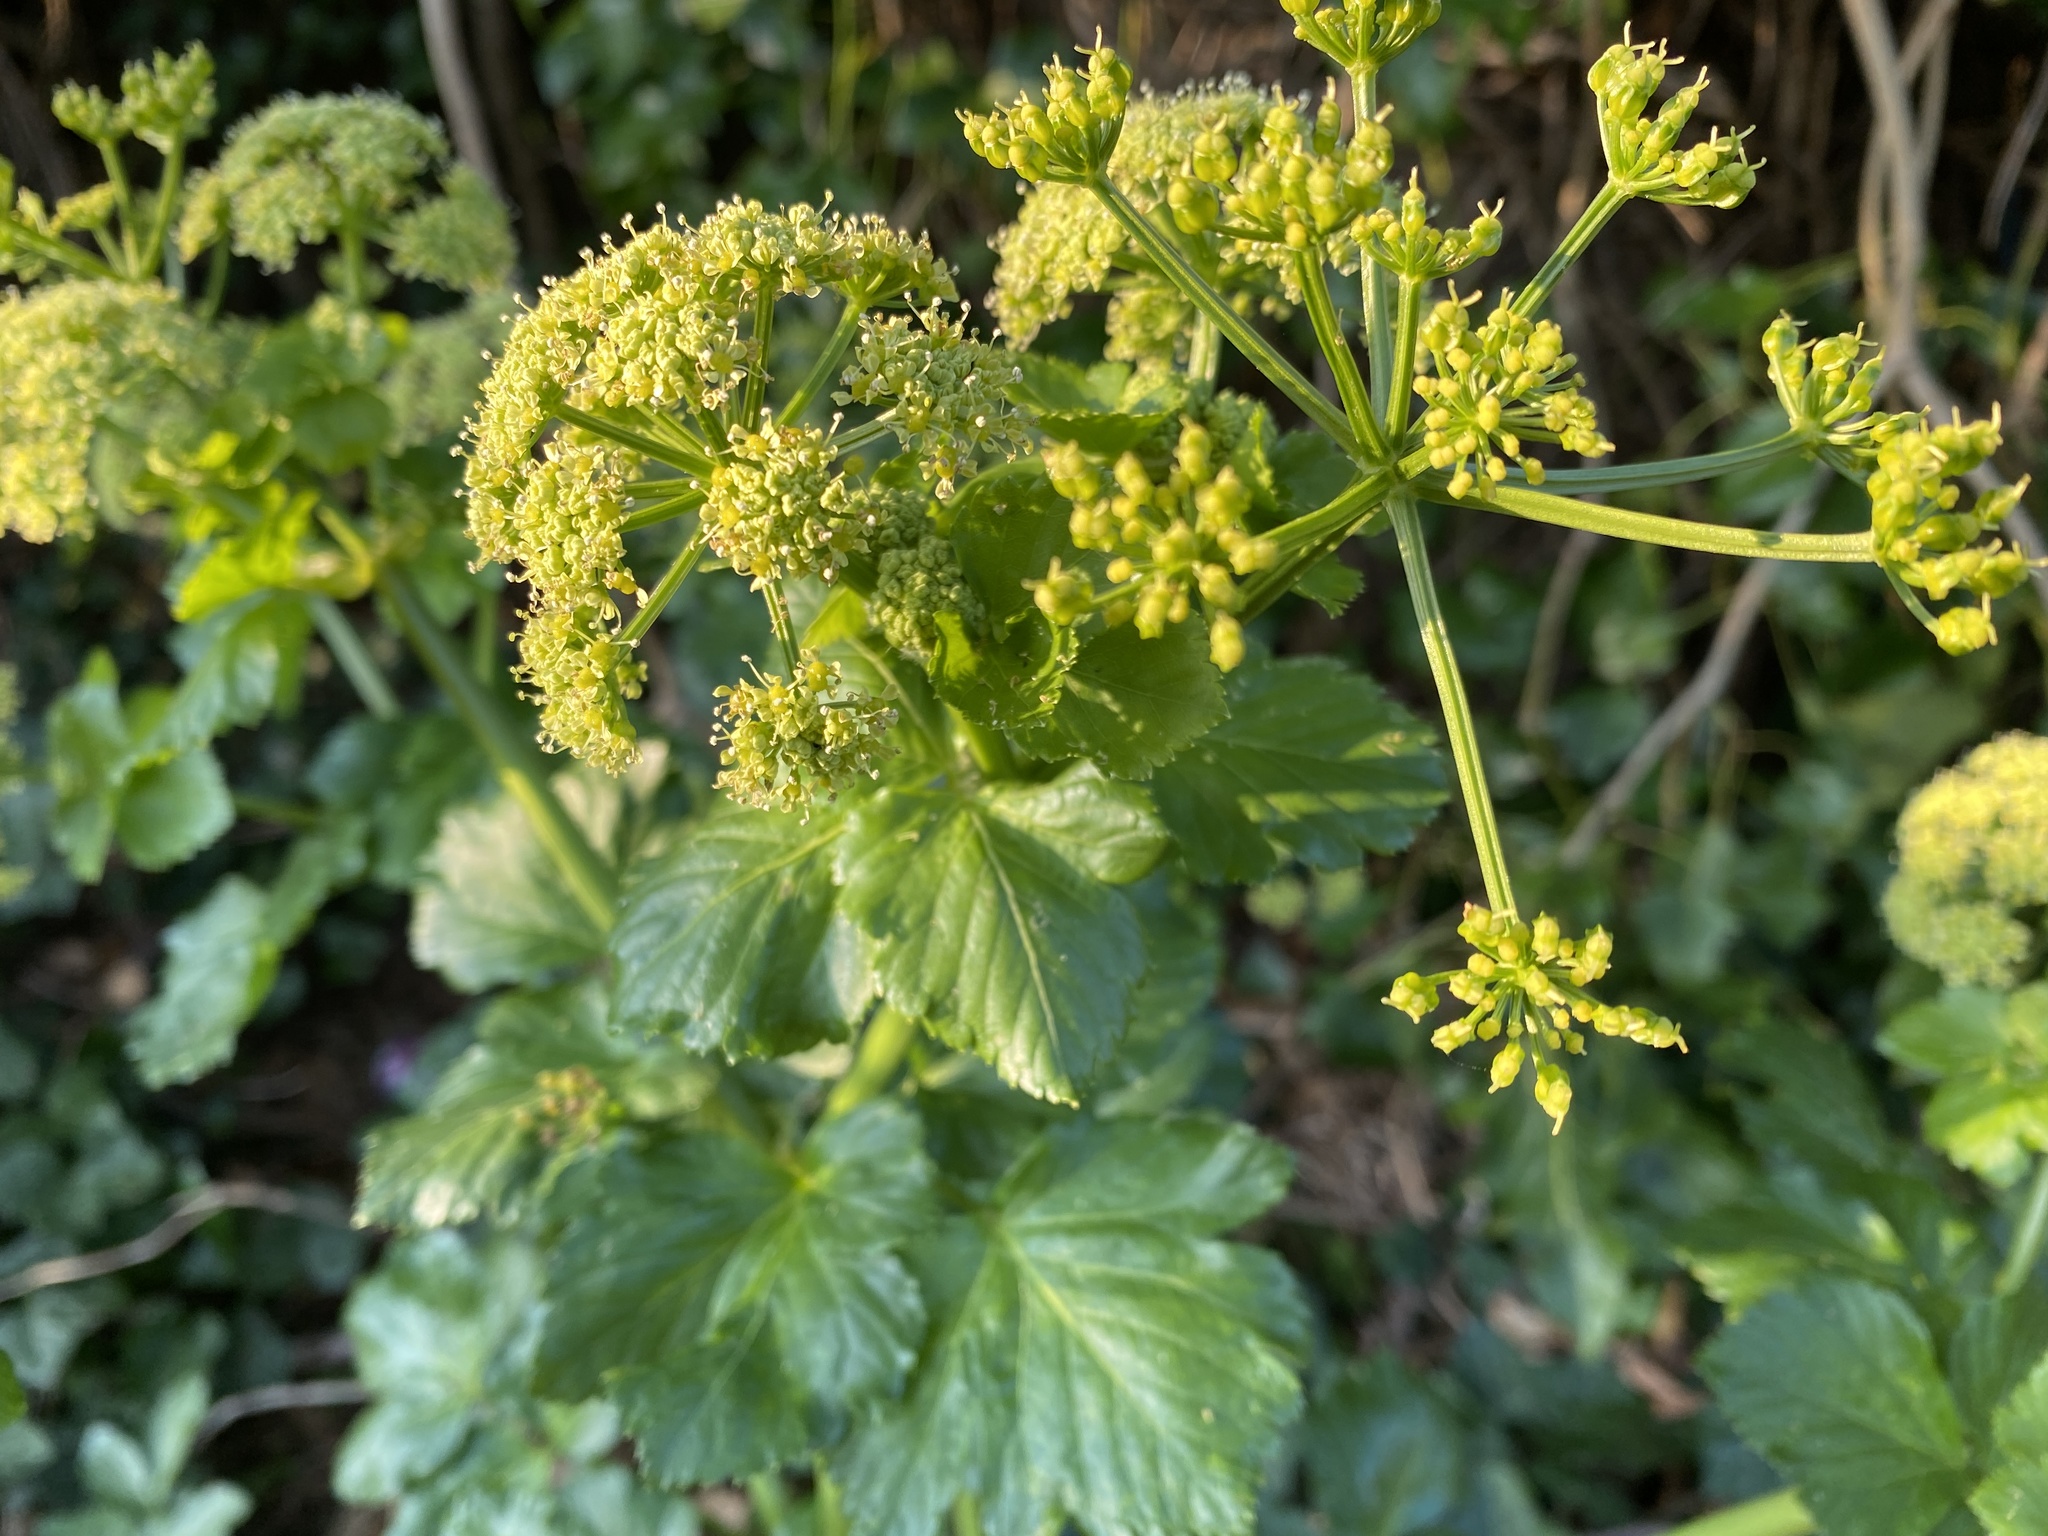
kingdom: Plantae
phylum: Tracheophyta
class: Magnoliopsida
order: Apiales
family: Apiaceae
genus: Smyrnium
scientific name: Smyrnium olusatrum
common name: Alexanders
